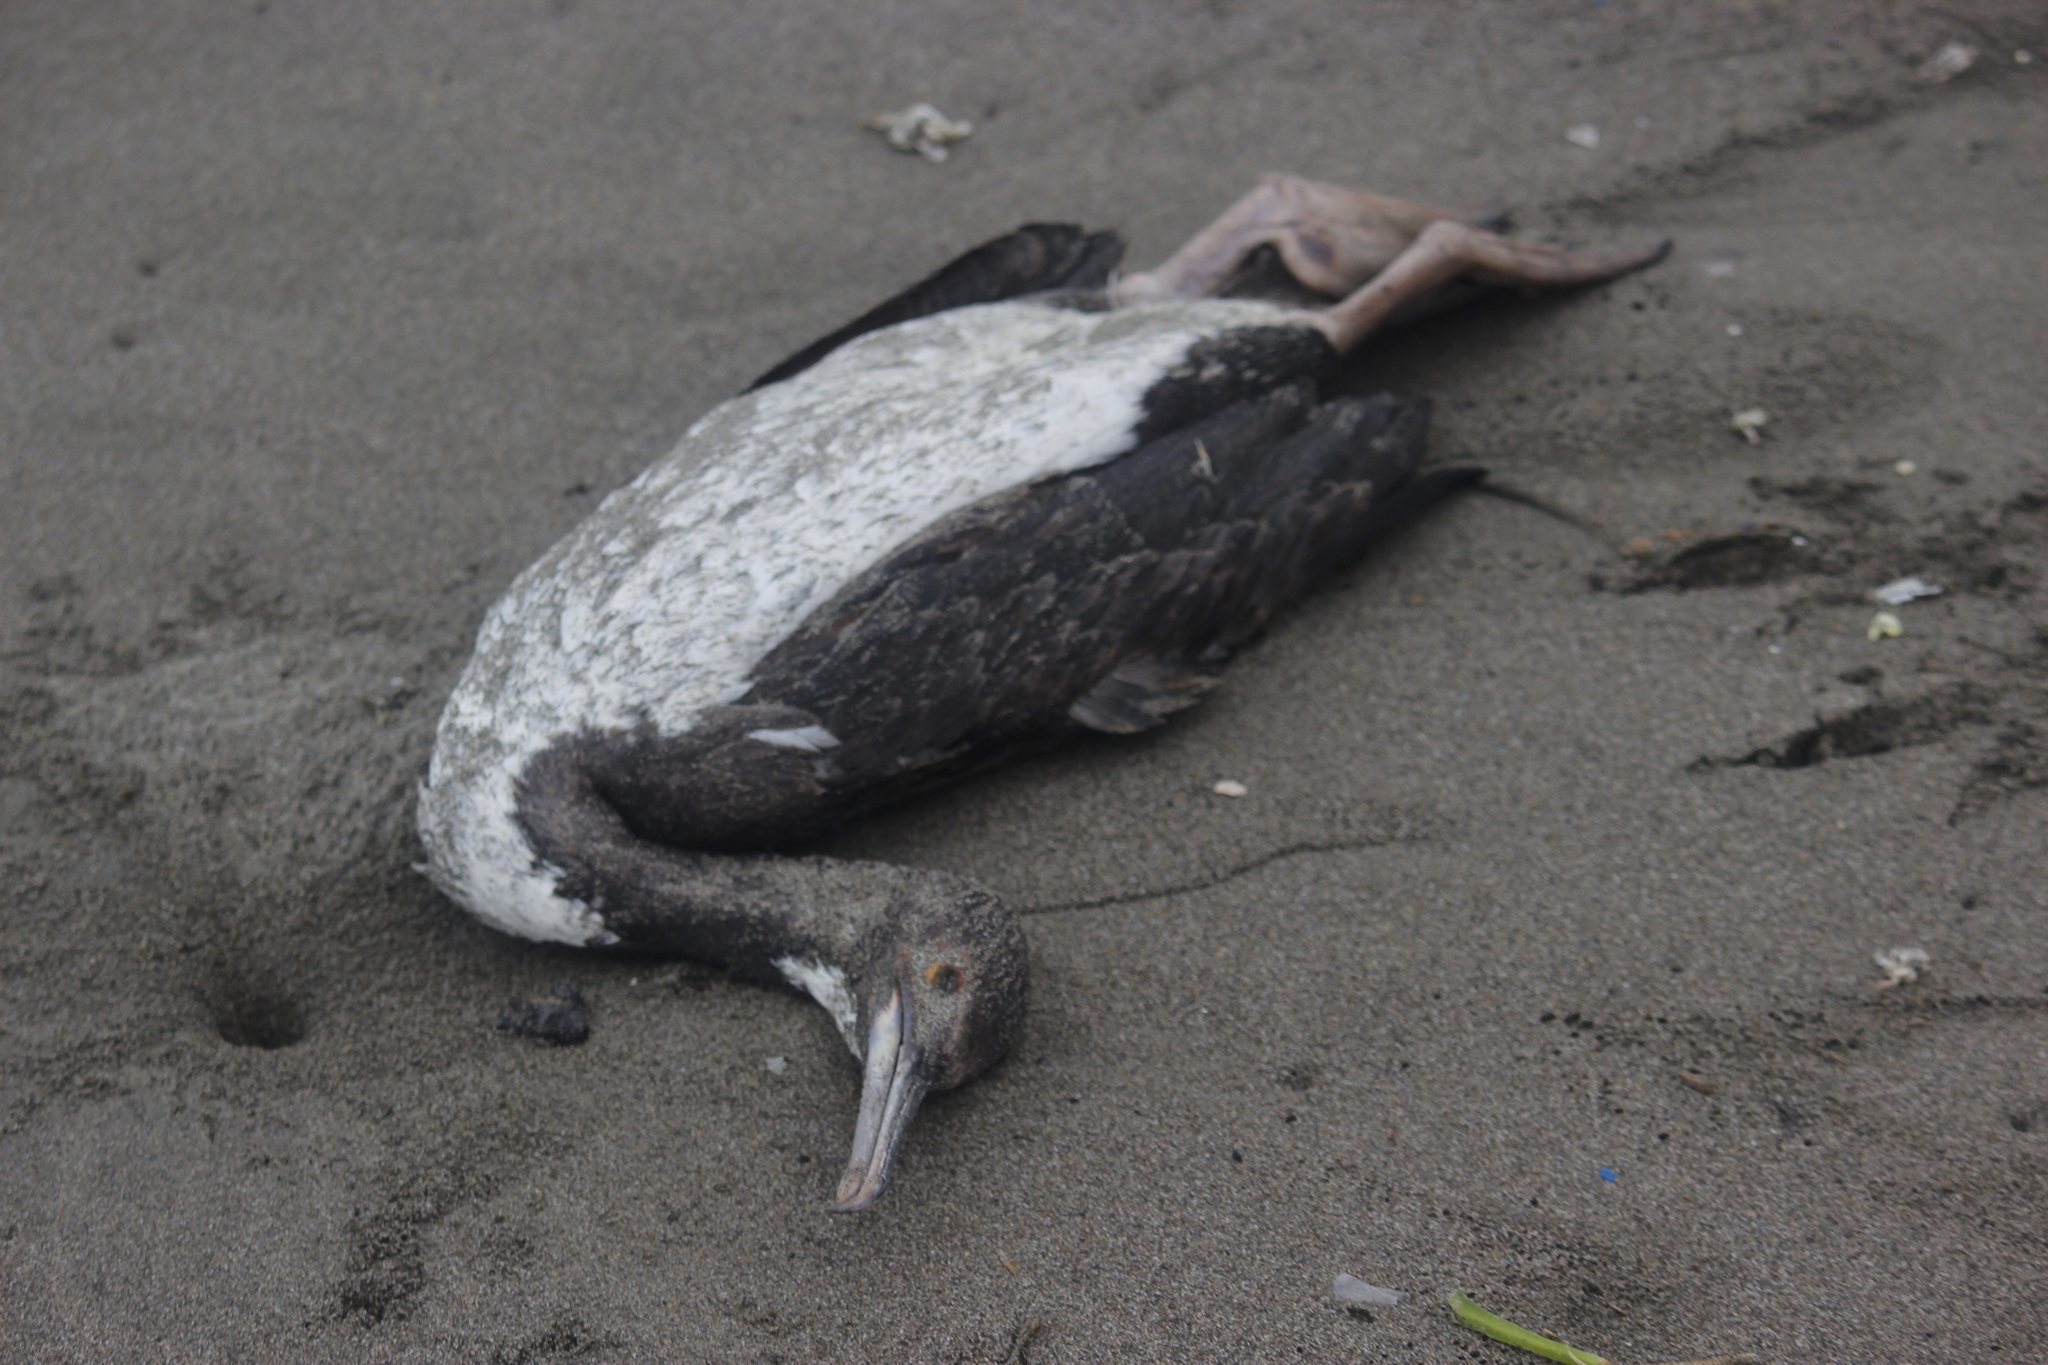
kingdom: Animalia
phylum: Chordata
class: Aves
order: Suliformes
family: Phalacrocoracidae
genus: Leucocarbo
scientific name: Leucocarbo bougainvillii
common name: Guanay cormorant
